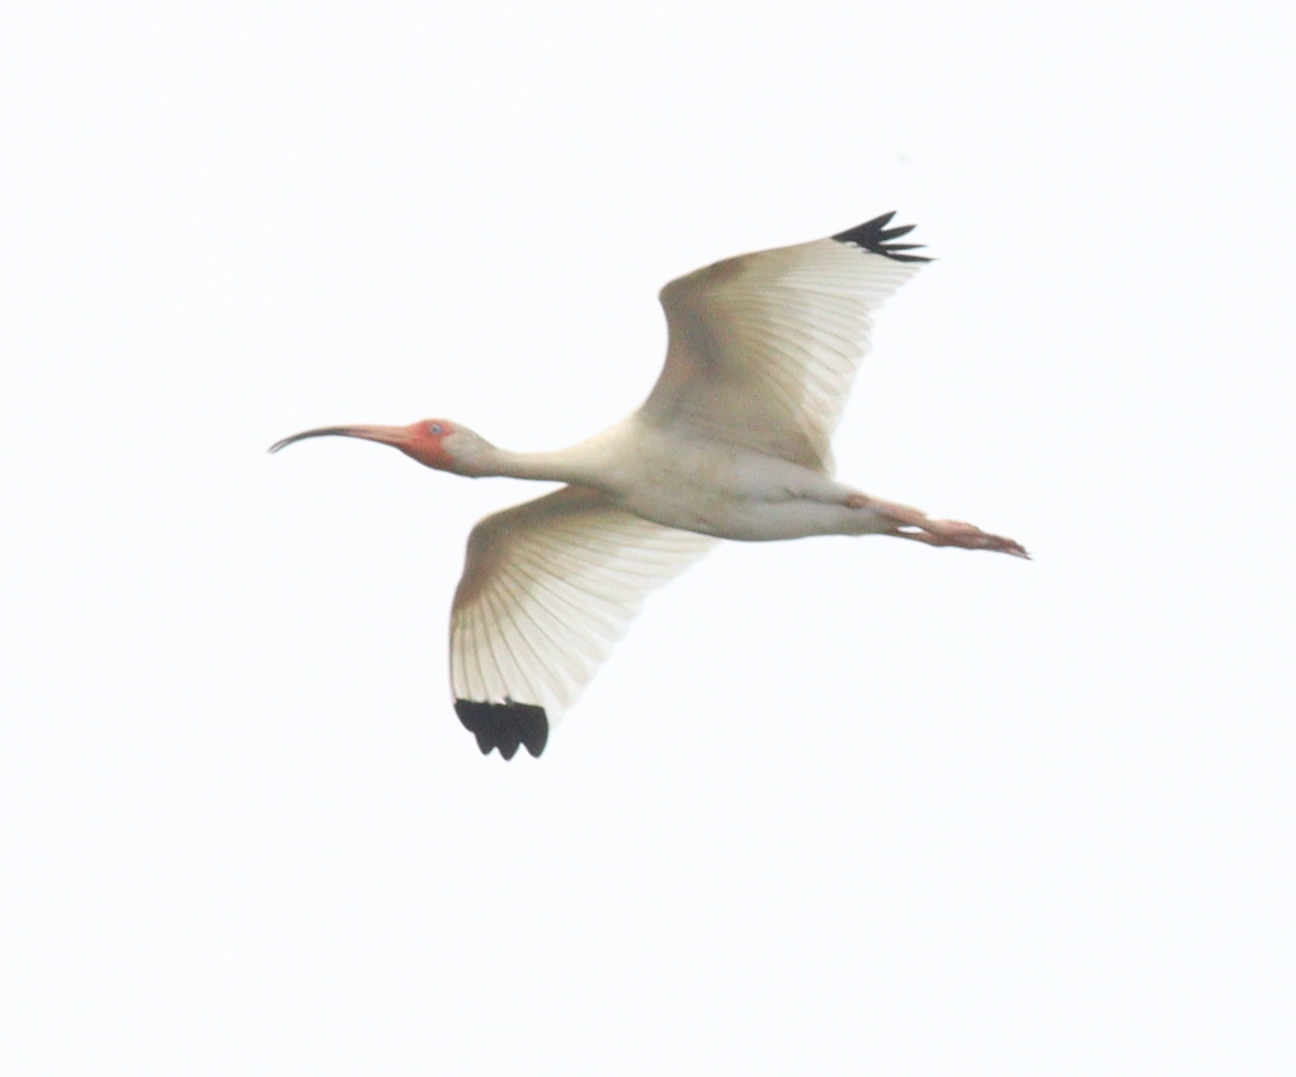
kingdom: Animalia
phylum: Chordata
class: Aves
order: Pelecaniformes
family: Threskiornithidae
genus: Eudocimus
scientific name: Eudocimus albus
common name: White ibis
